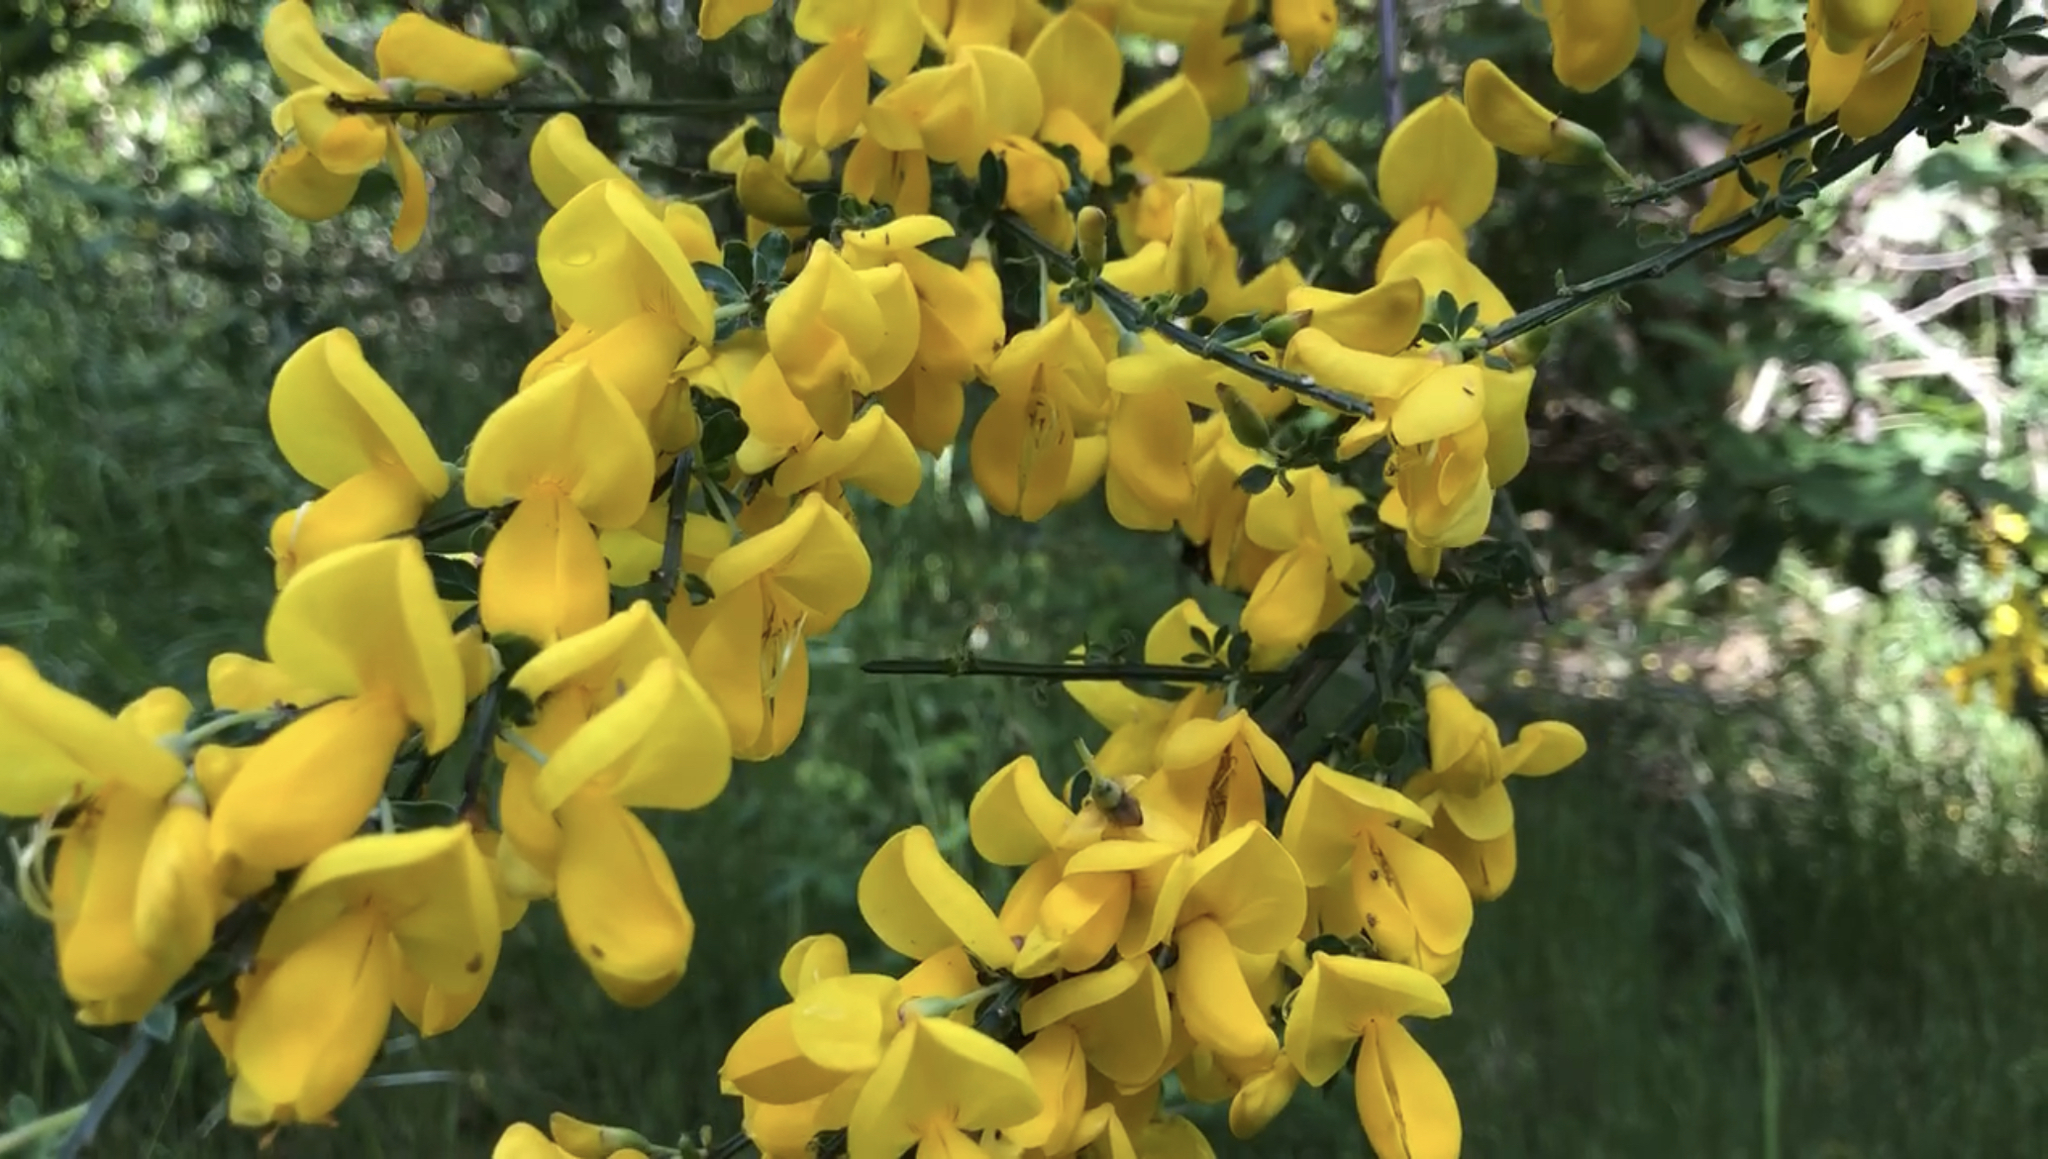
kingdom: Plantae
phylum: Tracheophyta
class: Magnoliopsida
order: Fabales
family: Fabaceae
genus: Cytisus
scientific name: Cytisus scoparius
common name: Scotch broom
